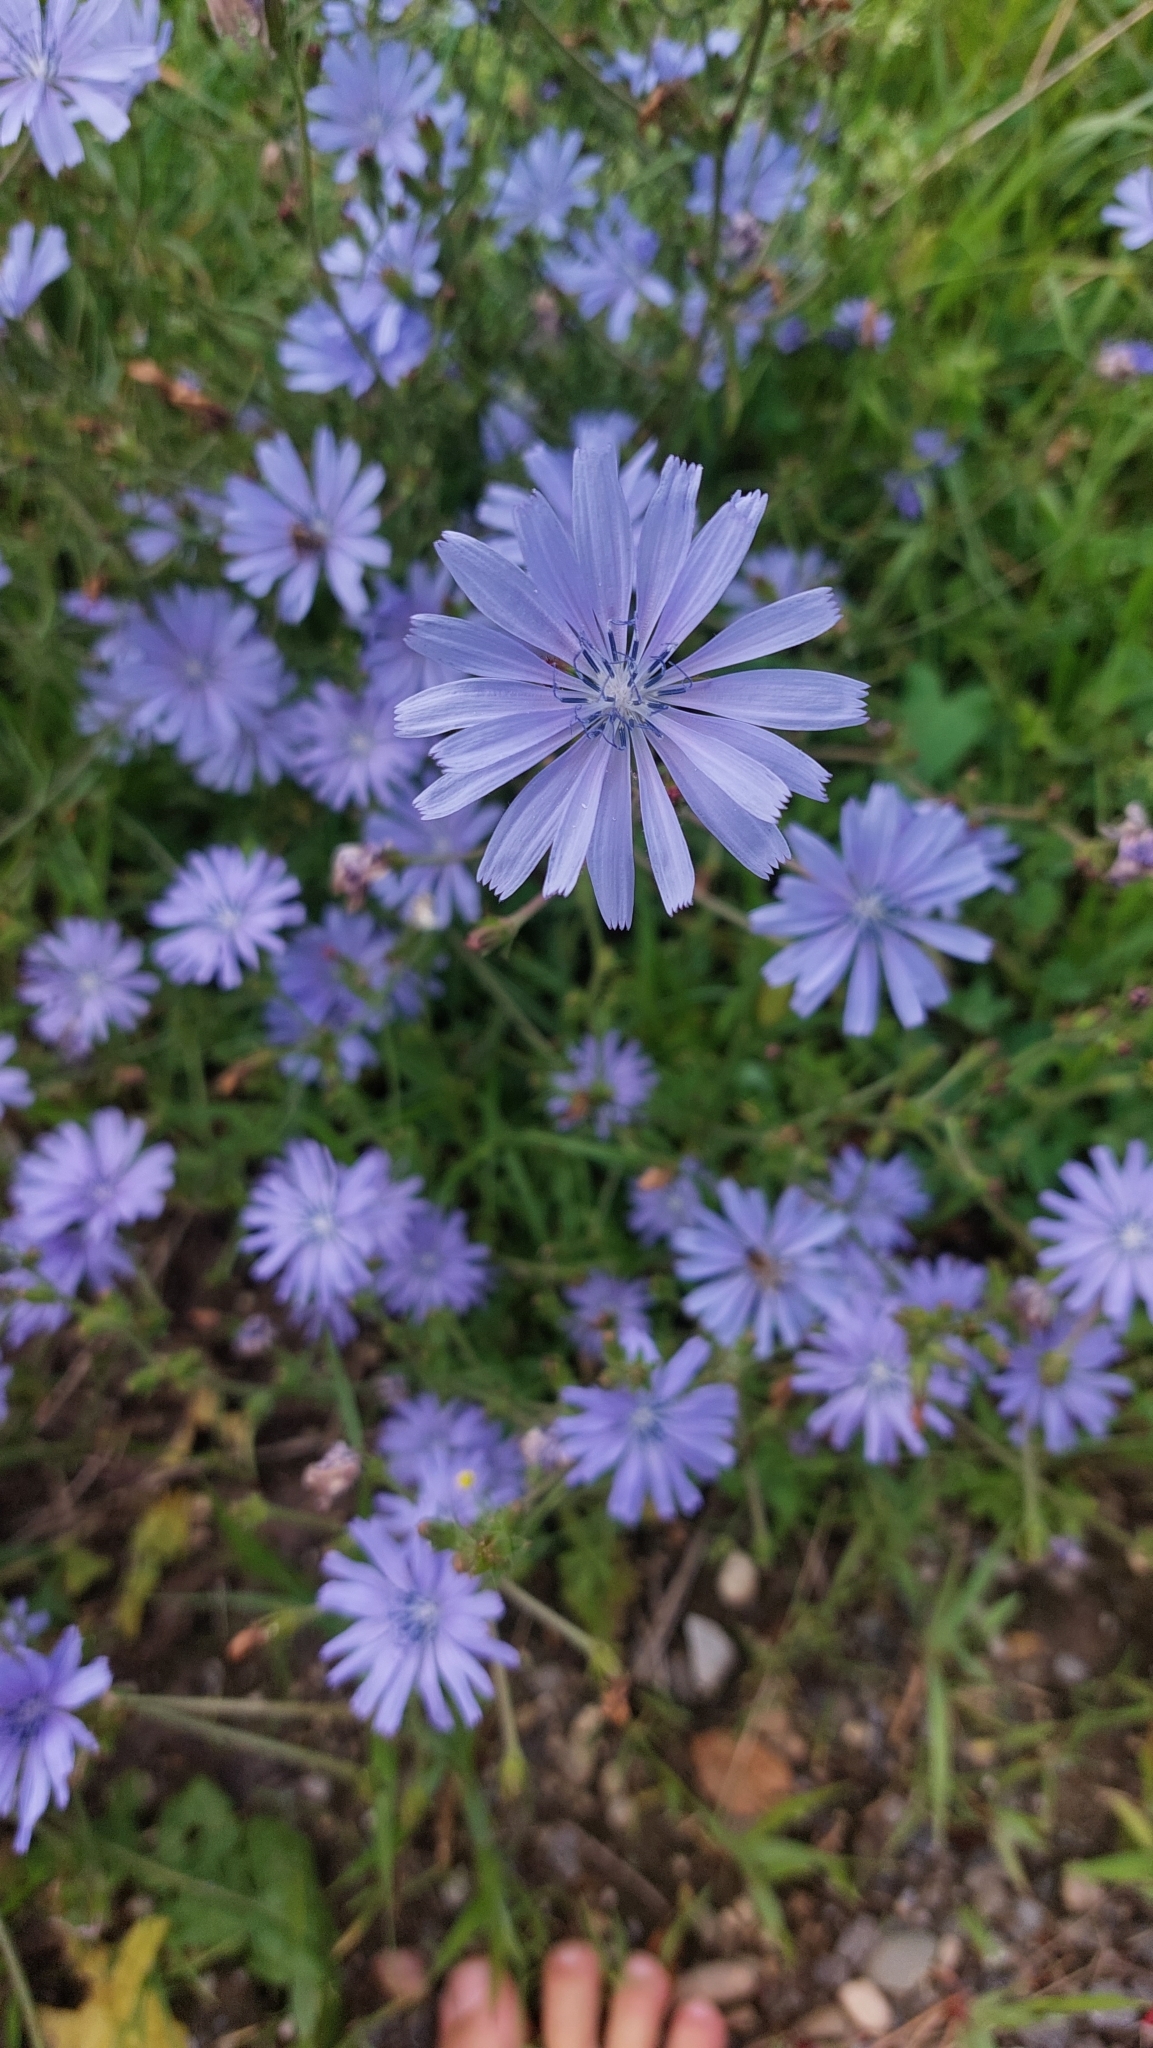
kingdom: Plantae
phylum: Tracheophyta
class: Magnoliopsida
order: Asterales
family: Asteraceae
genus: Cichorium
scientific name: Cichorium intybus
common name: Chicory
